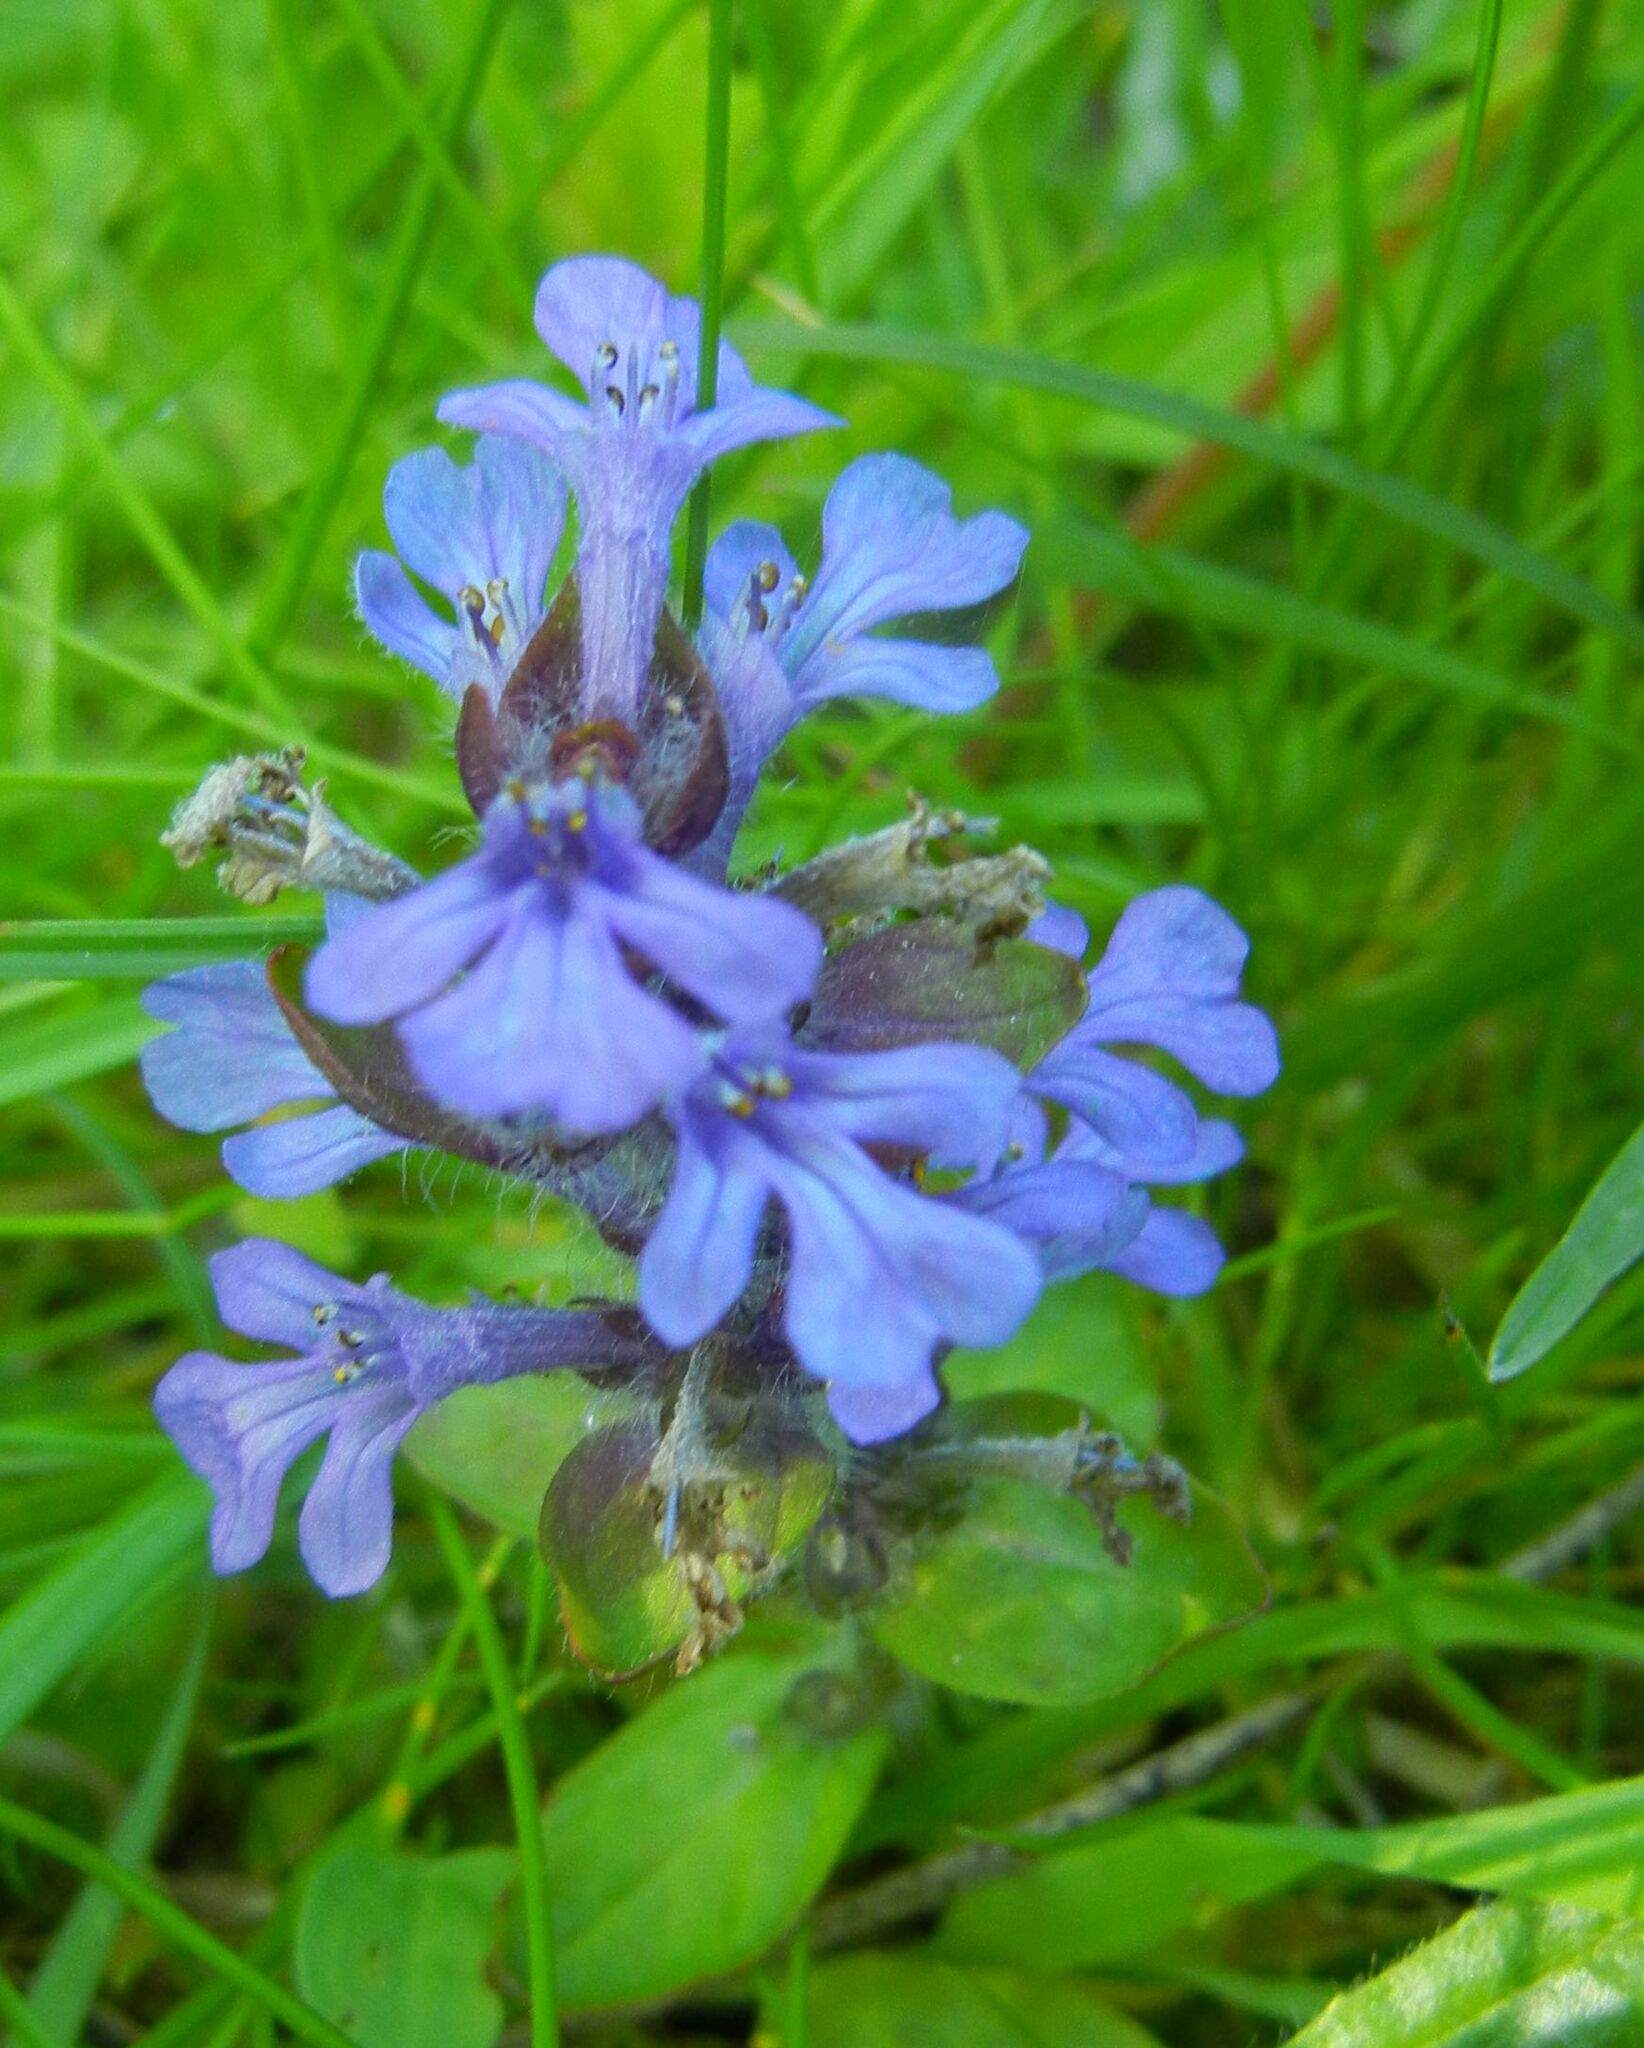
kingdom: Plantae
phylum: Tracheophyta
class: Magnoliopsida
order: Lamiales
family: Lamiaceae
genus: Ajuga
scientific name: Ajuga reptans
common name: Bugle
